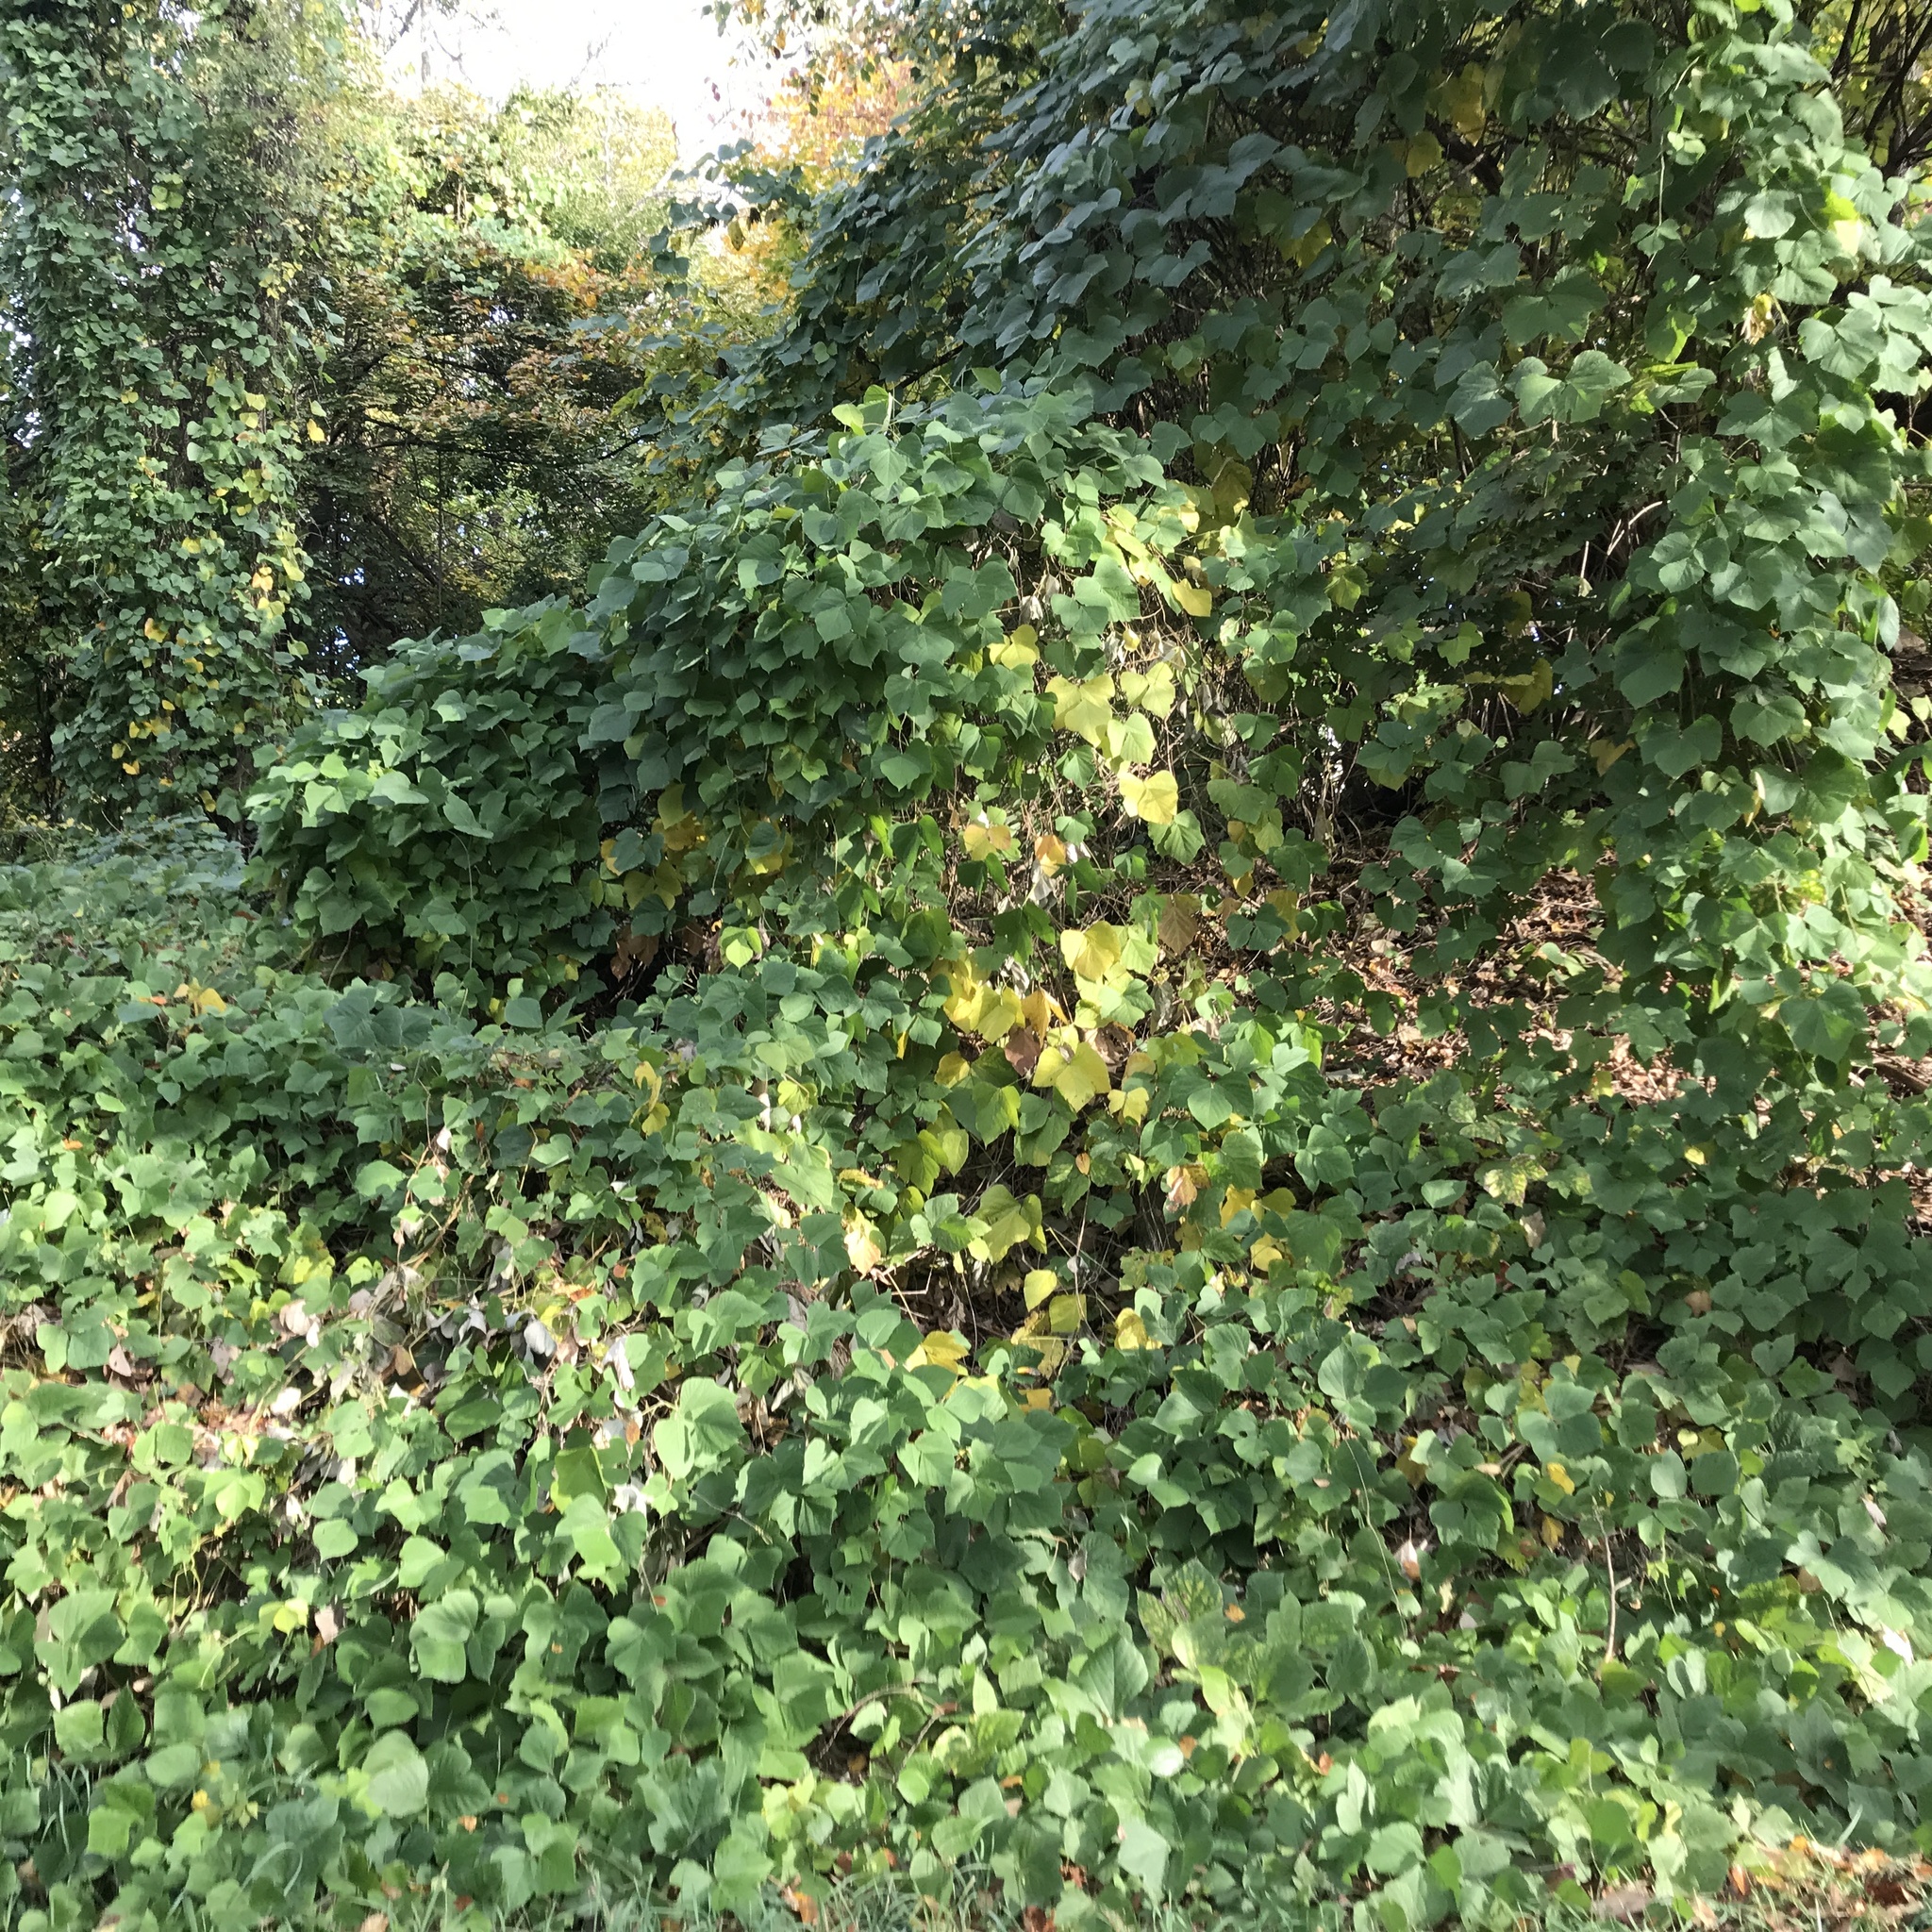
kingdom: Plantae
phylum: Tracheophyta
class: Magnoliopsida
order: Fabales
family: Fabaceae
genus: Pueraria
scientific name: Pueraria montana
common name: Kudzu
